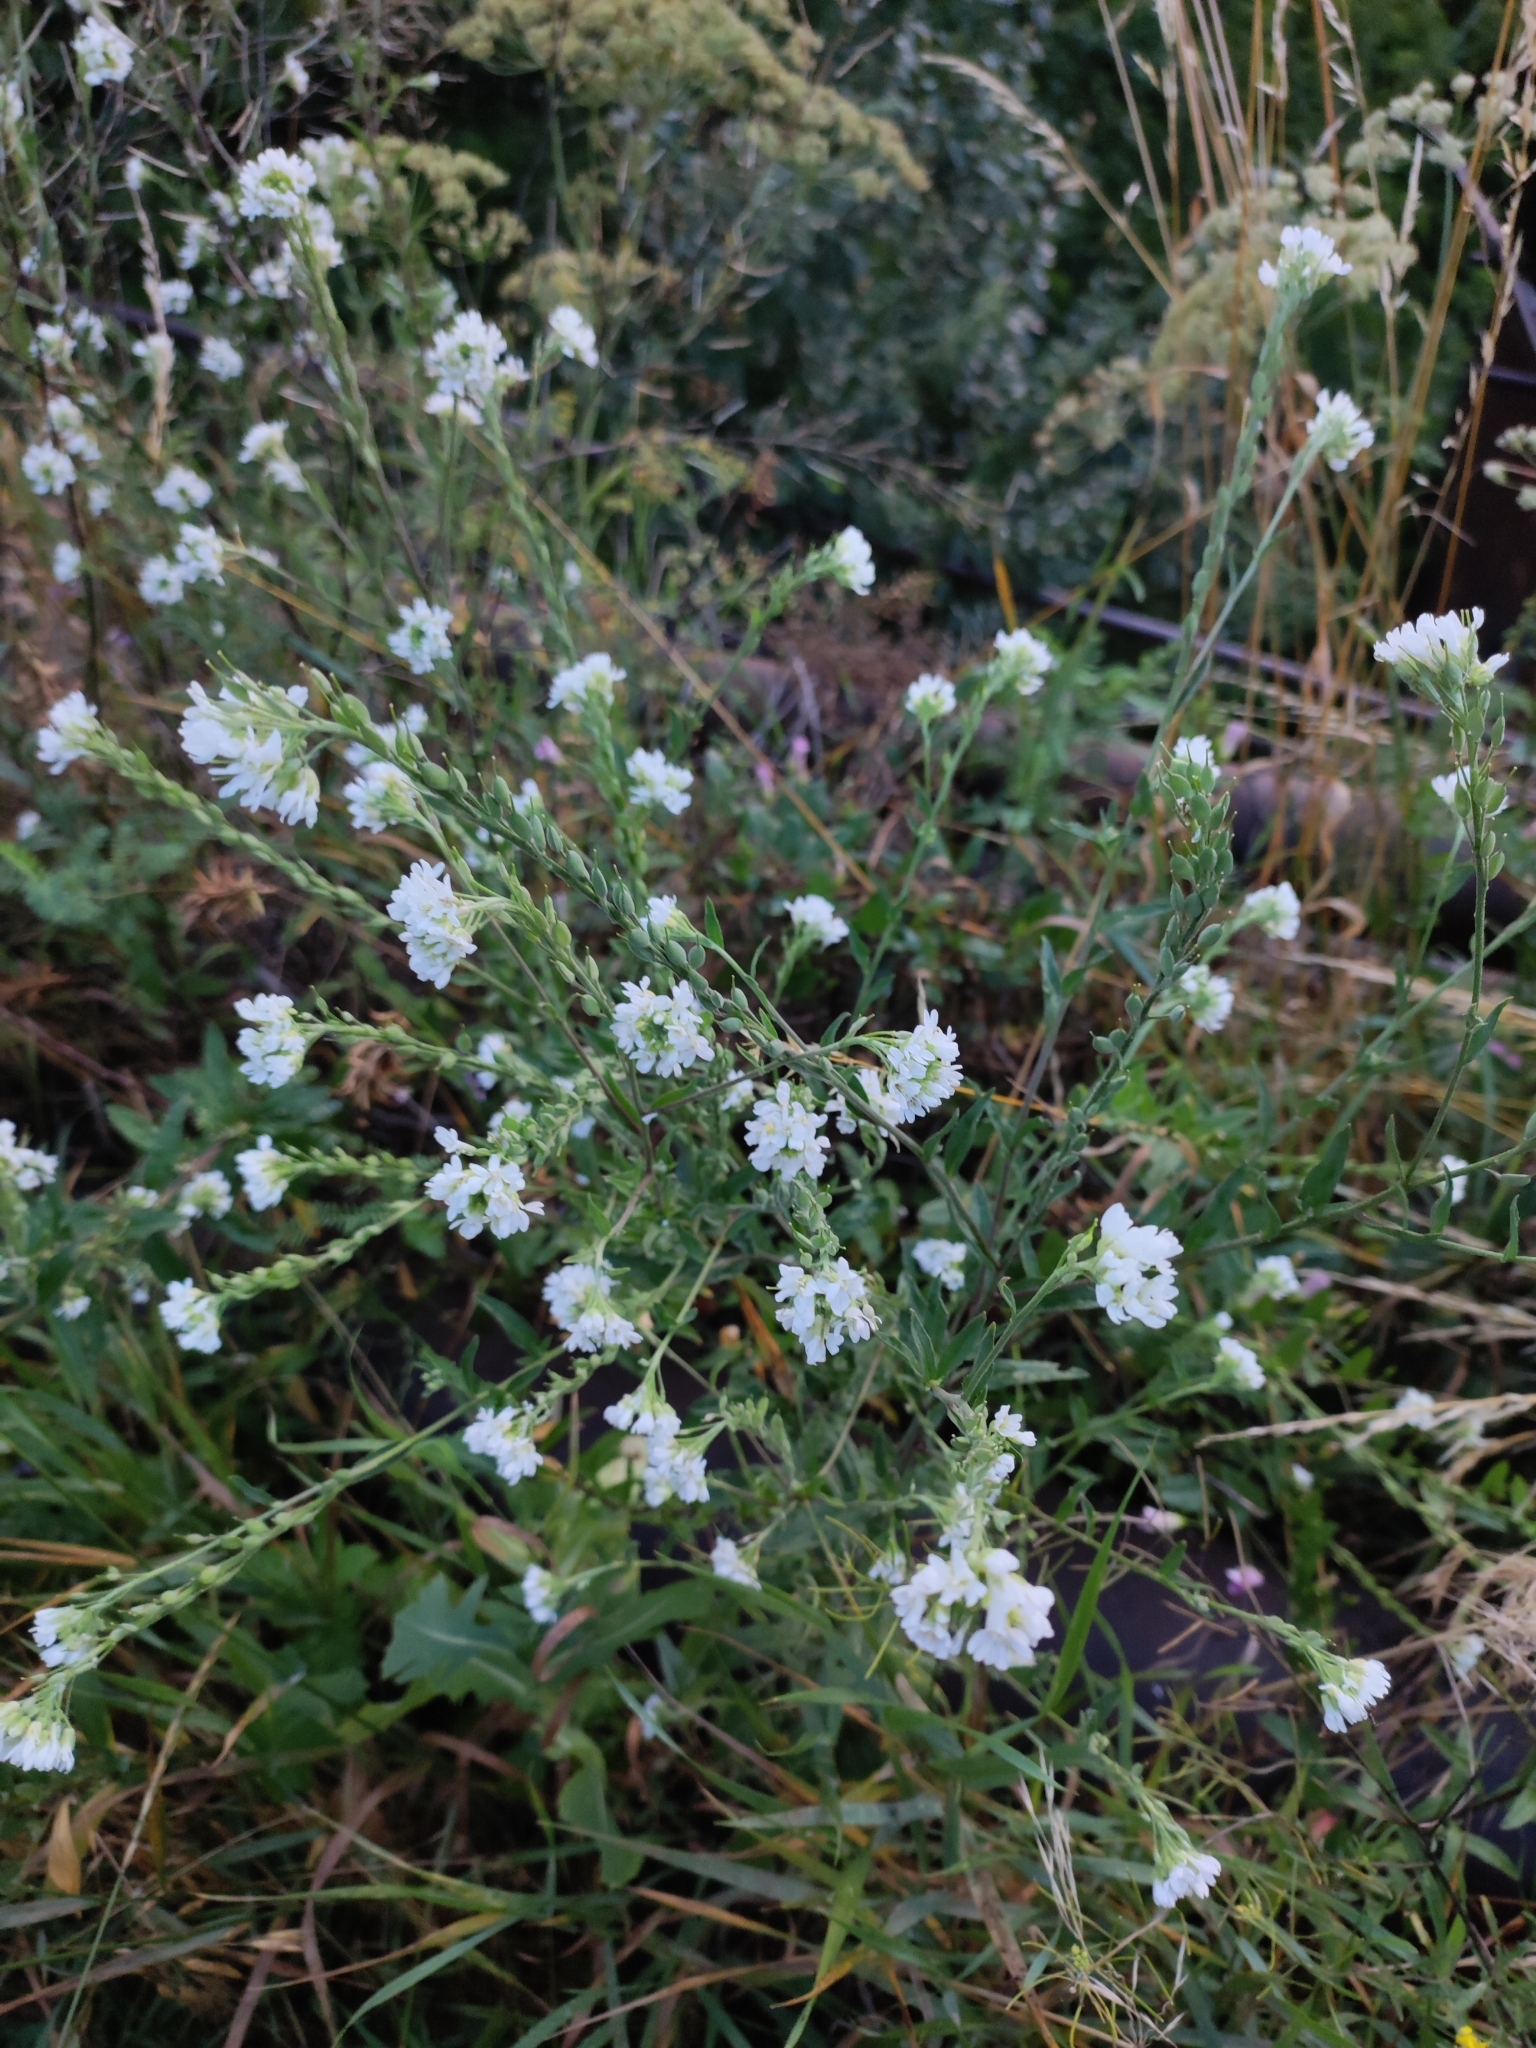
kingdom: Plantae
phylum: Tracheophyta
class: Magnoliopsida
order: Brassicales
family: Brassicaceae
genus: Berteroa
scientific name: Berteroa incana
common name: Hoary alison
